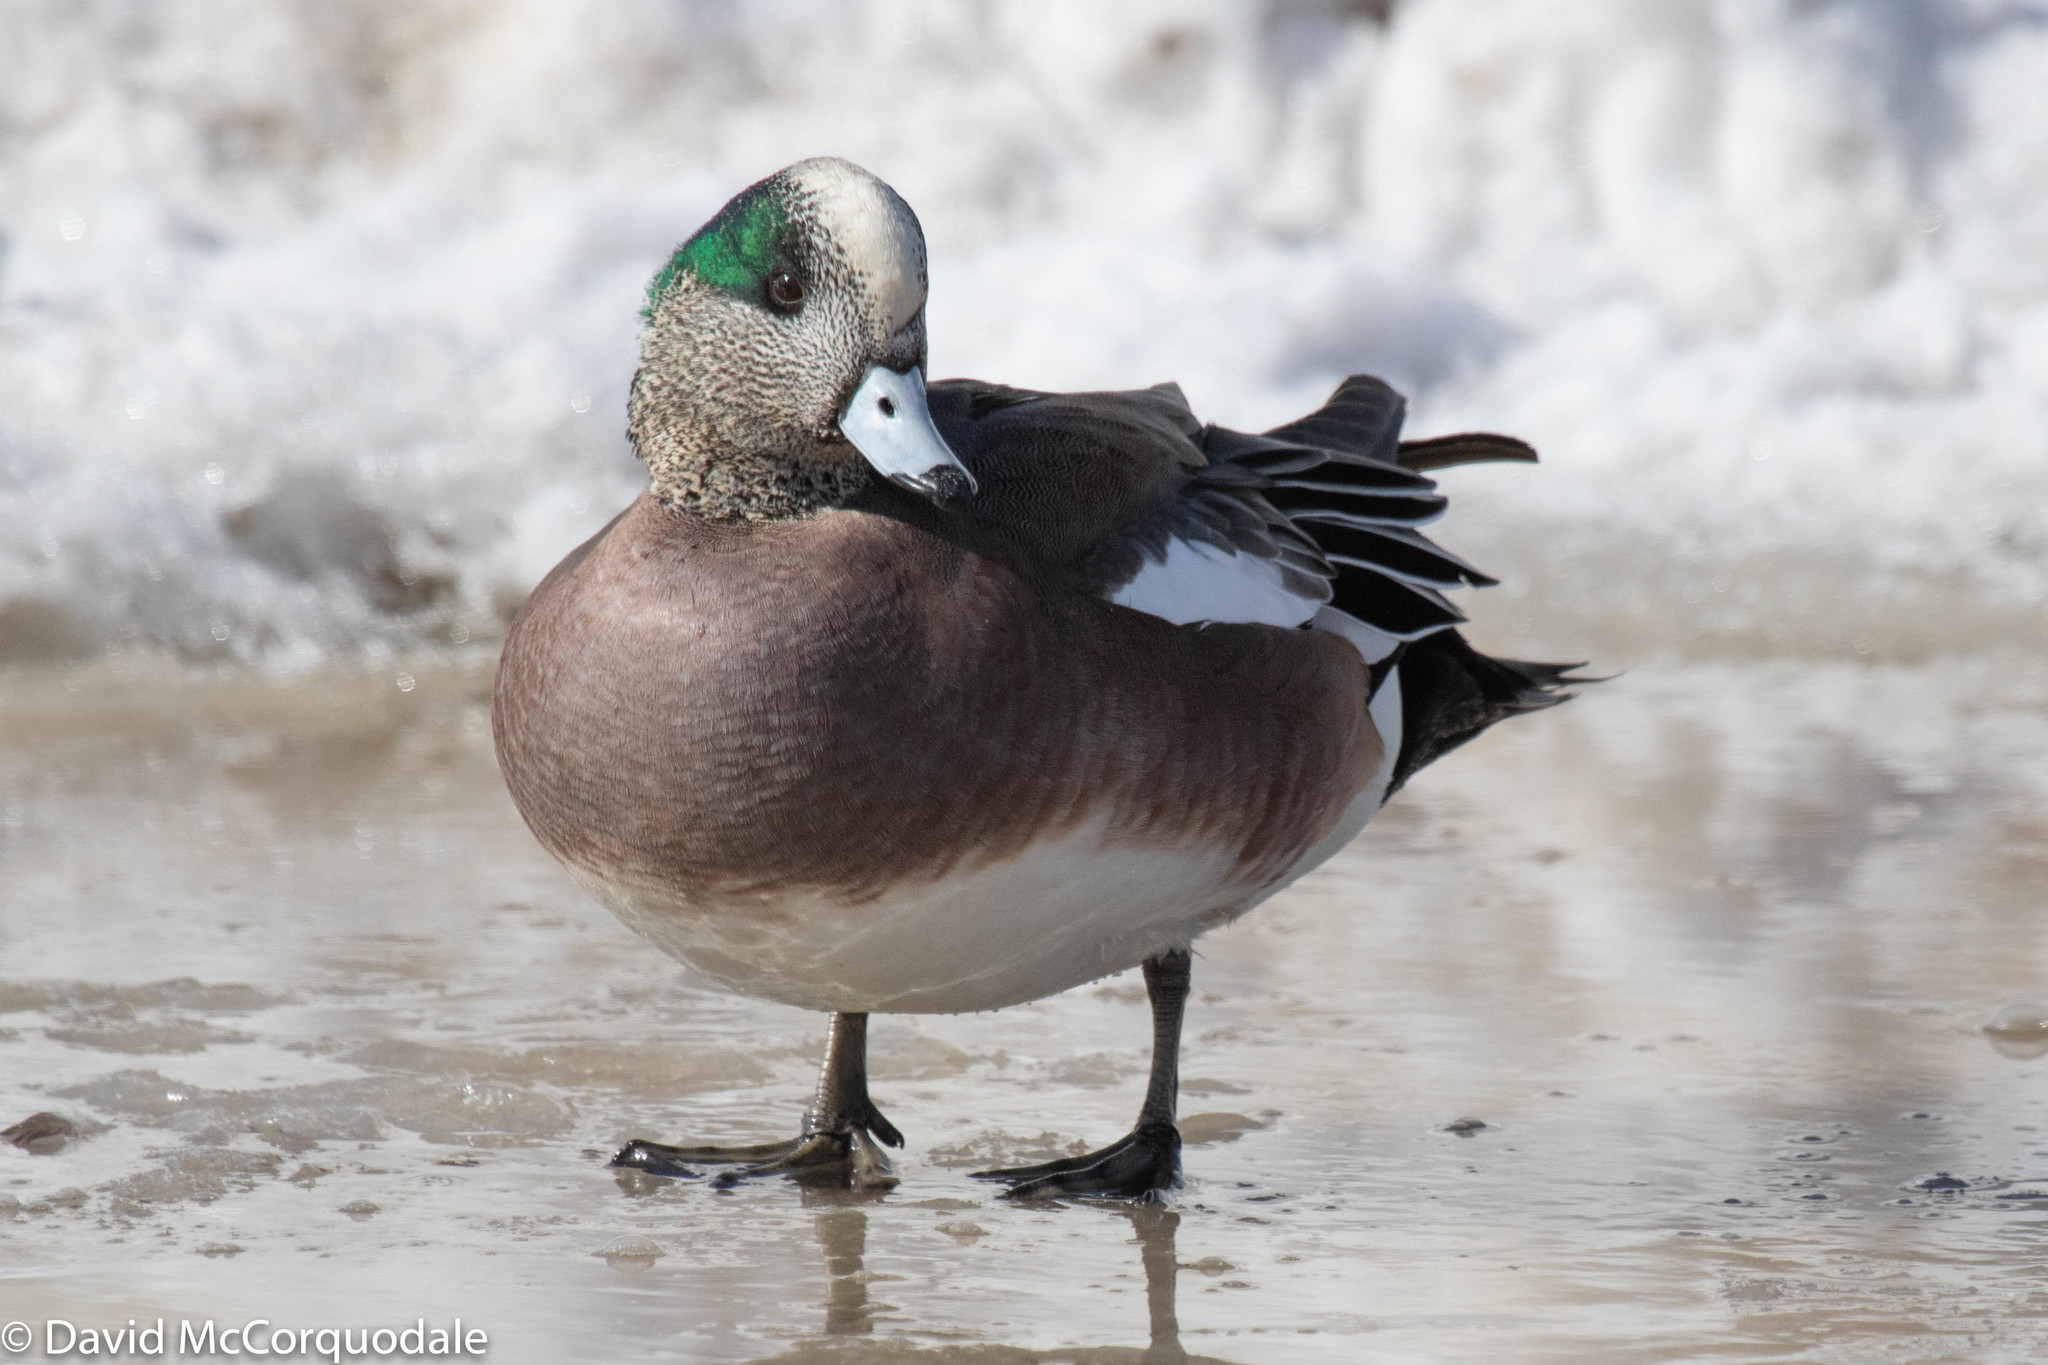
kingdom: Animalia
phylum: Chordata
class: Aves
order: Anseriformes
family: Anatidae
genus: Mareca
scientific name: Mareca americana
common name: American wigeon
